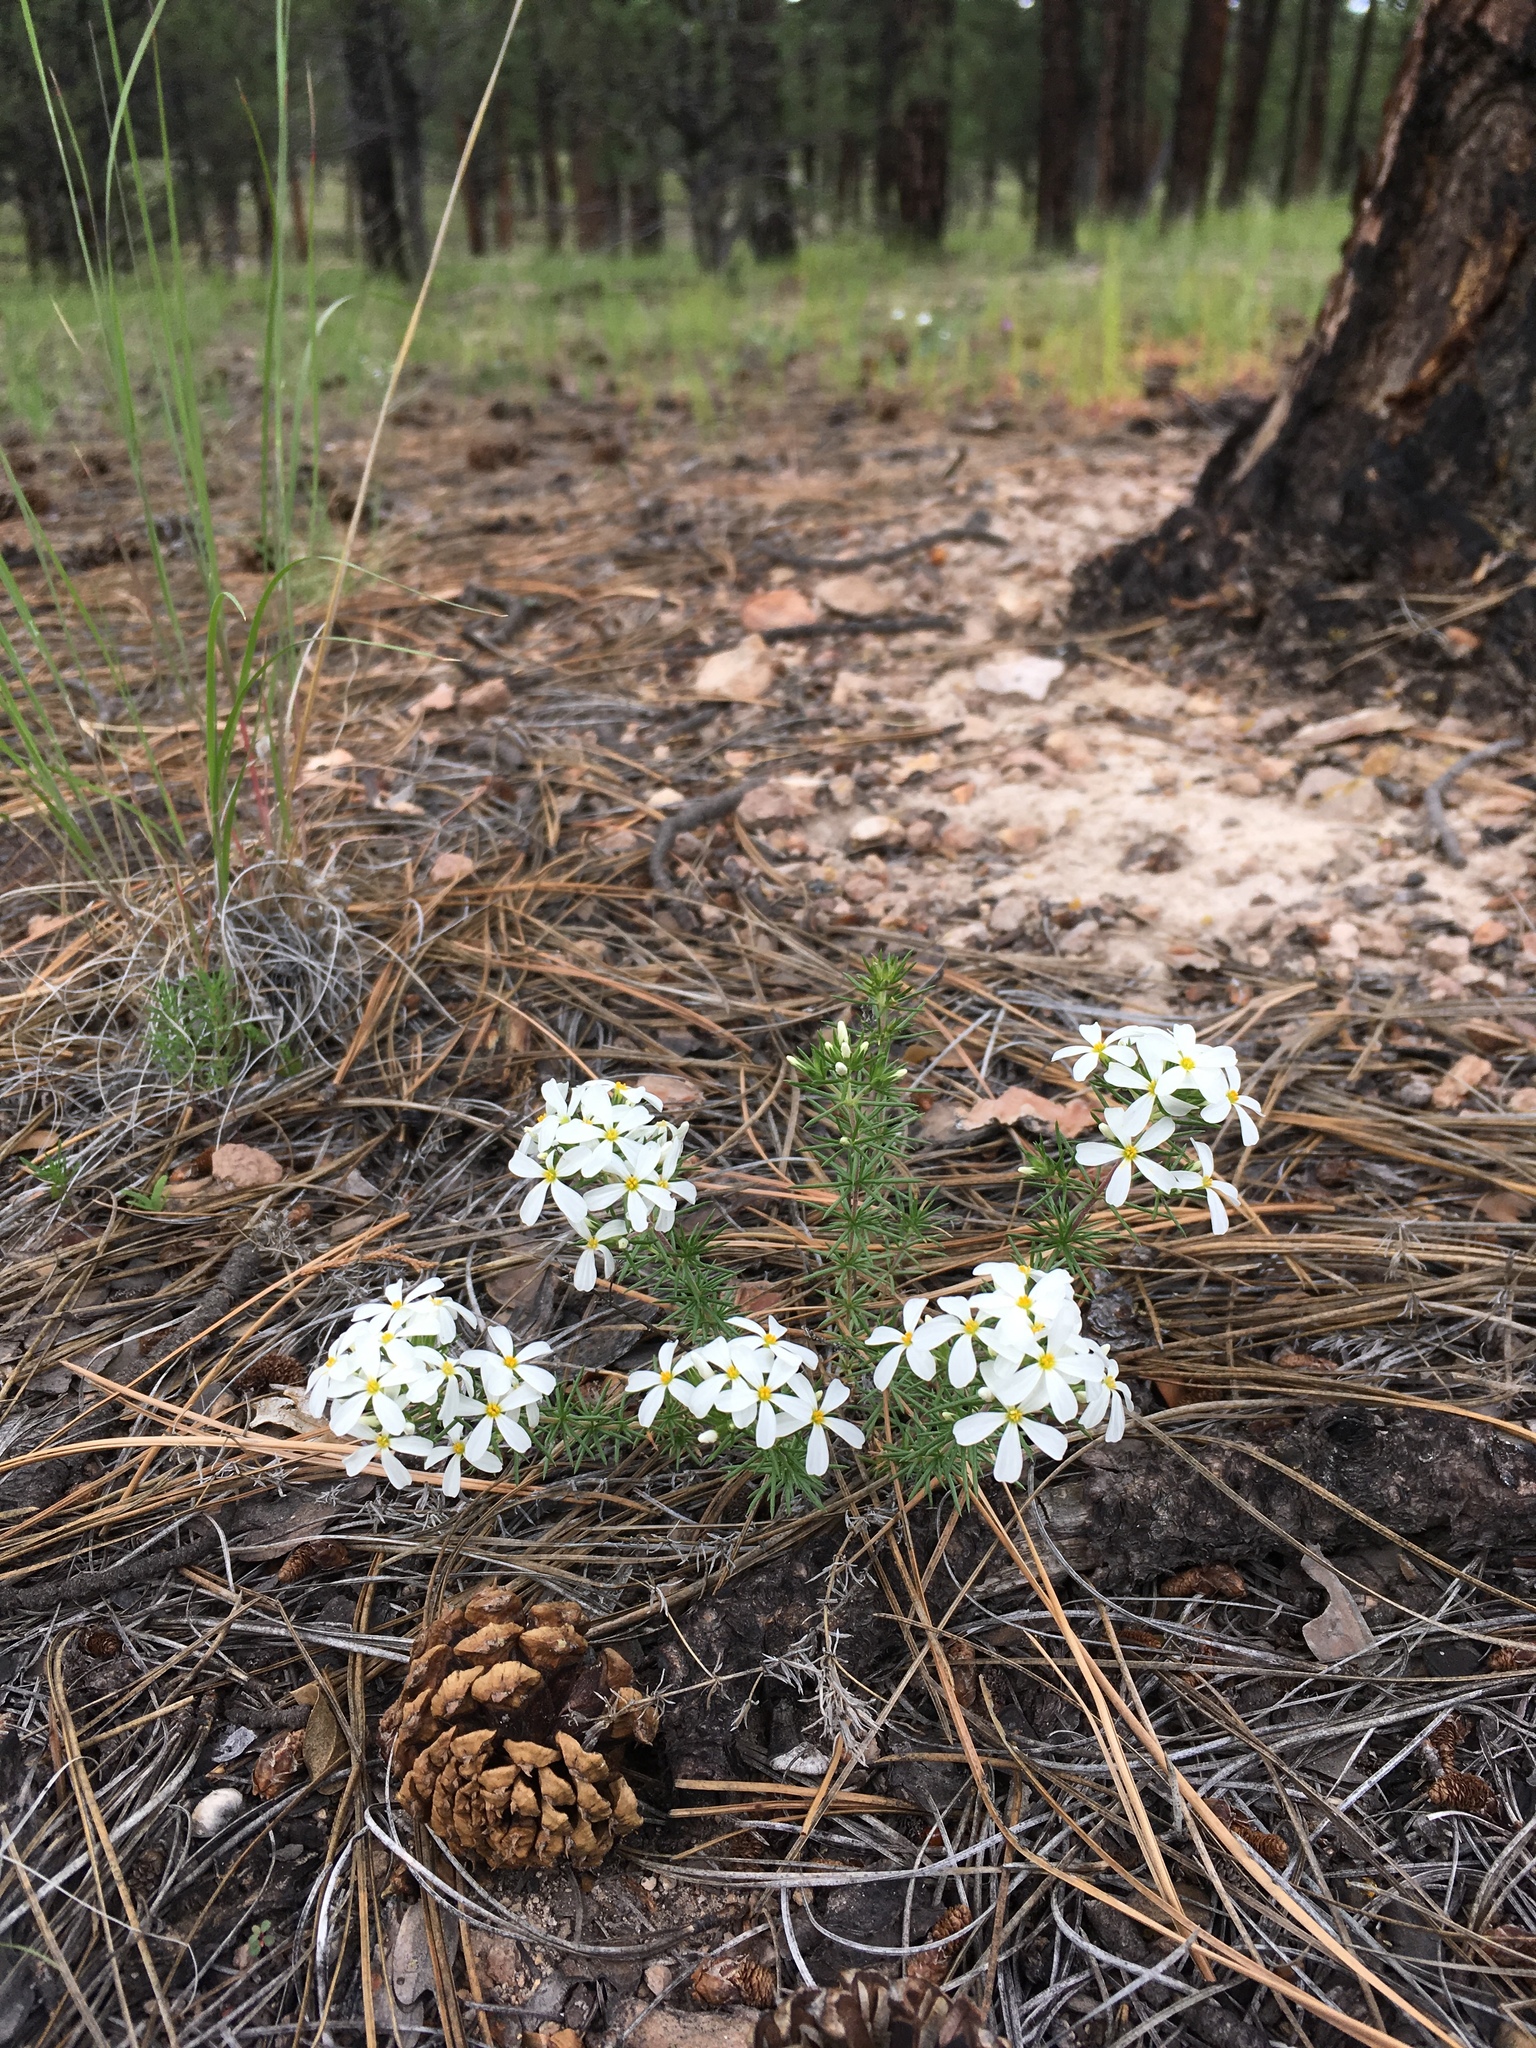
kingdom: Plantae
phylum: Tracheophyta
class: Magnoliopsida
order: Ericales
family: Polemoniaceae
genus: Leptosiphon
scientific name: Leptosiphon nuttallii
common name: Nuttall's linanthus
